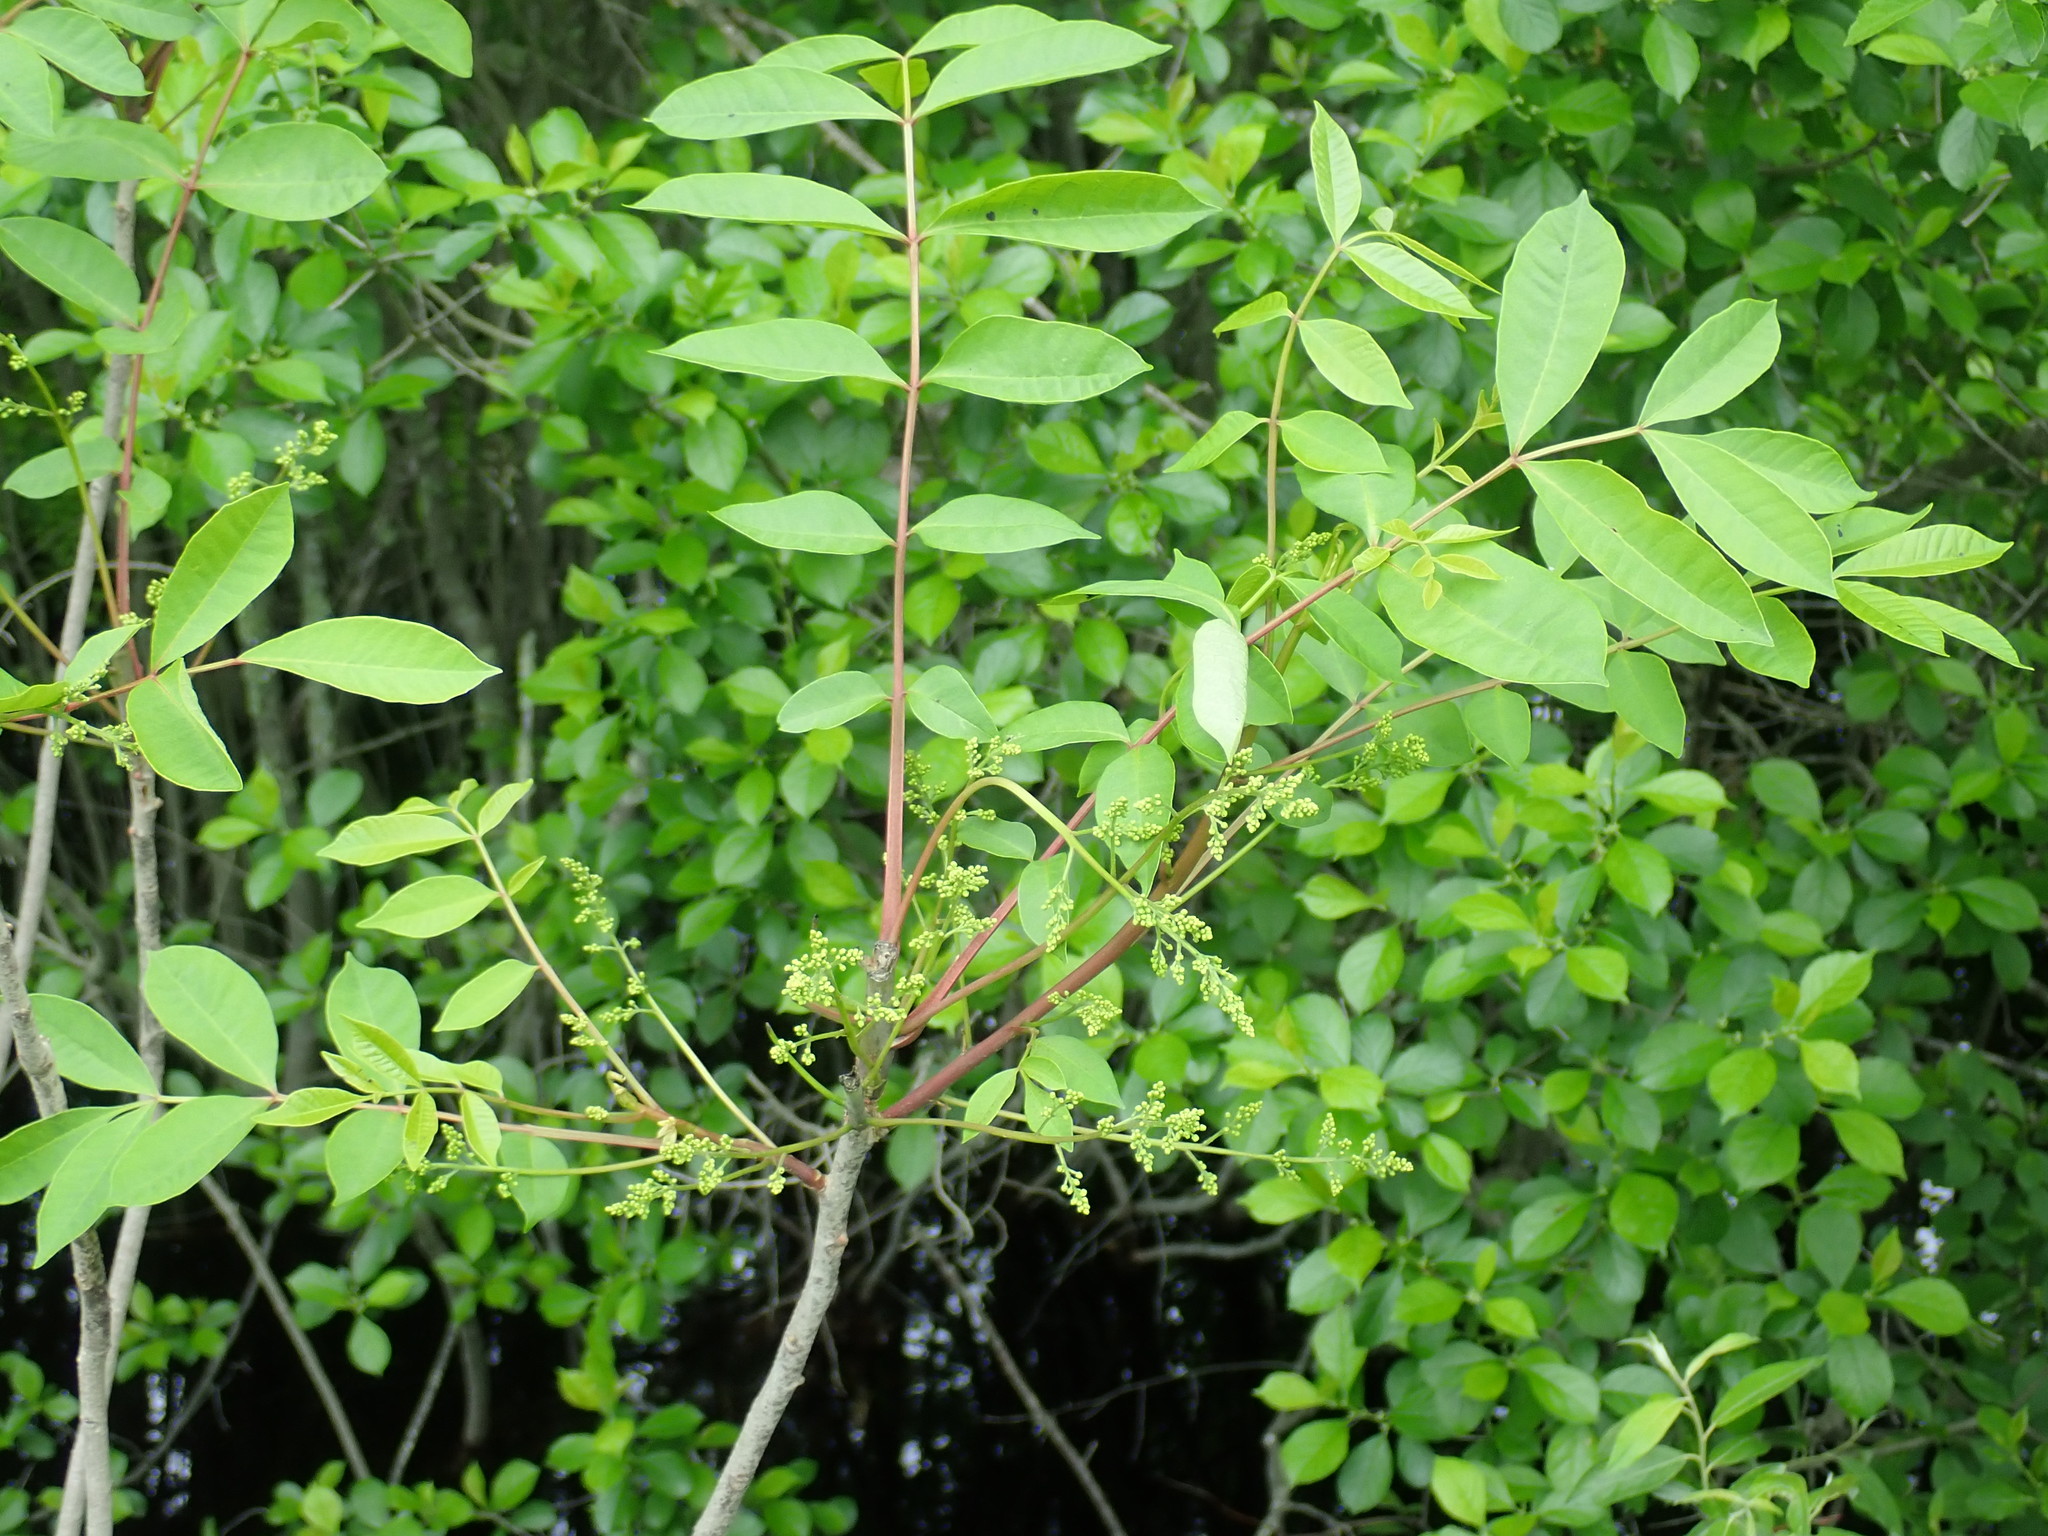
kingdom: Plantae
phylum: Tracheophyta
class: Magnoliopsida
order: Sapindales
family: Anacardiaceae
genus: Toxicodendron
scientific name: Toxicodendron vernix
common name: Poison sumac
